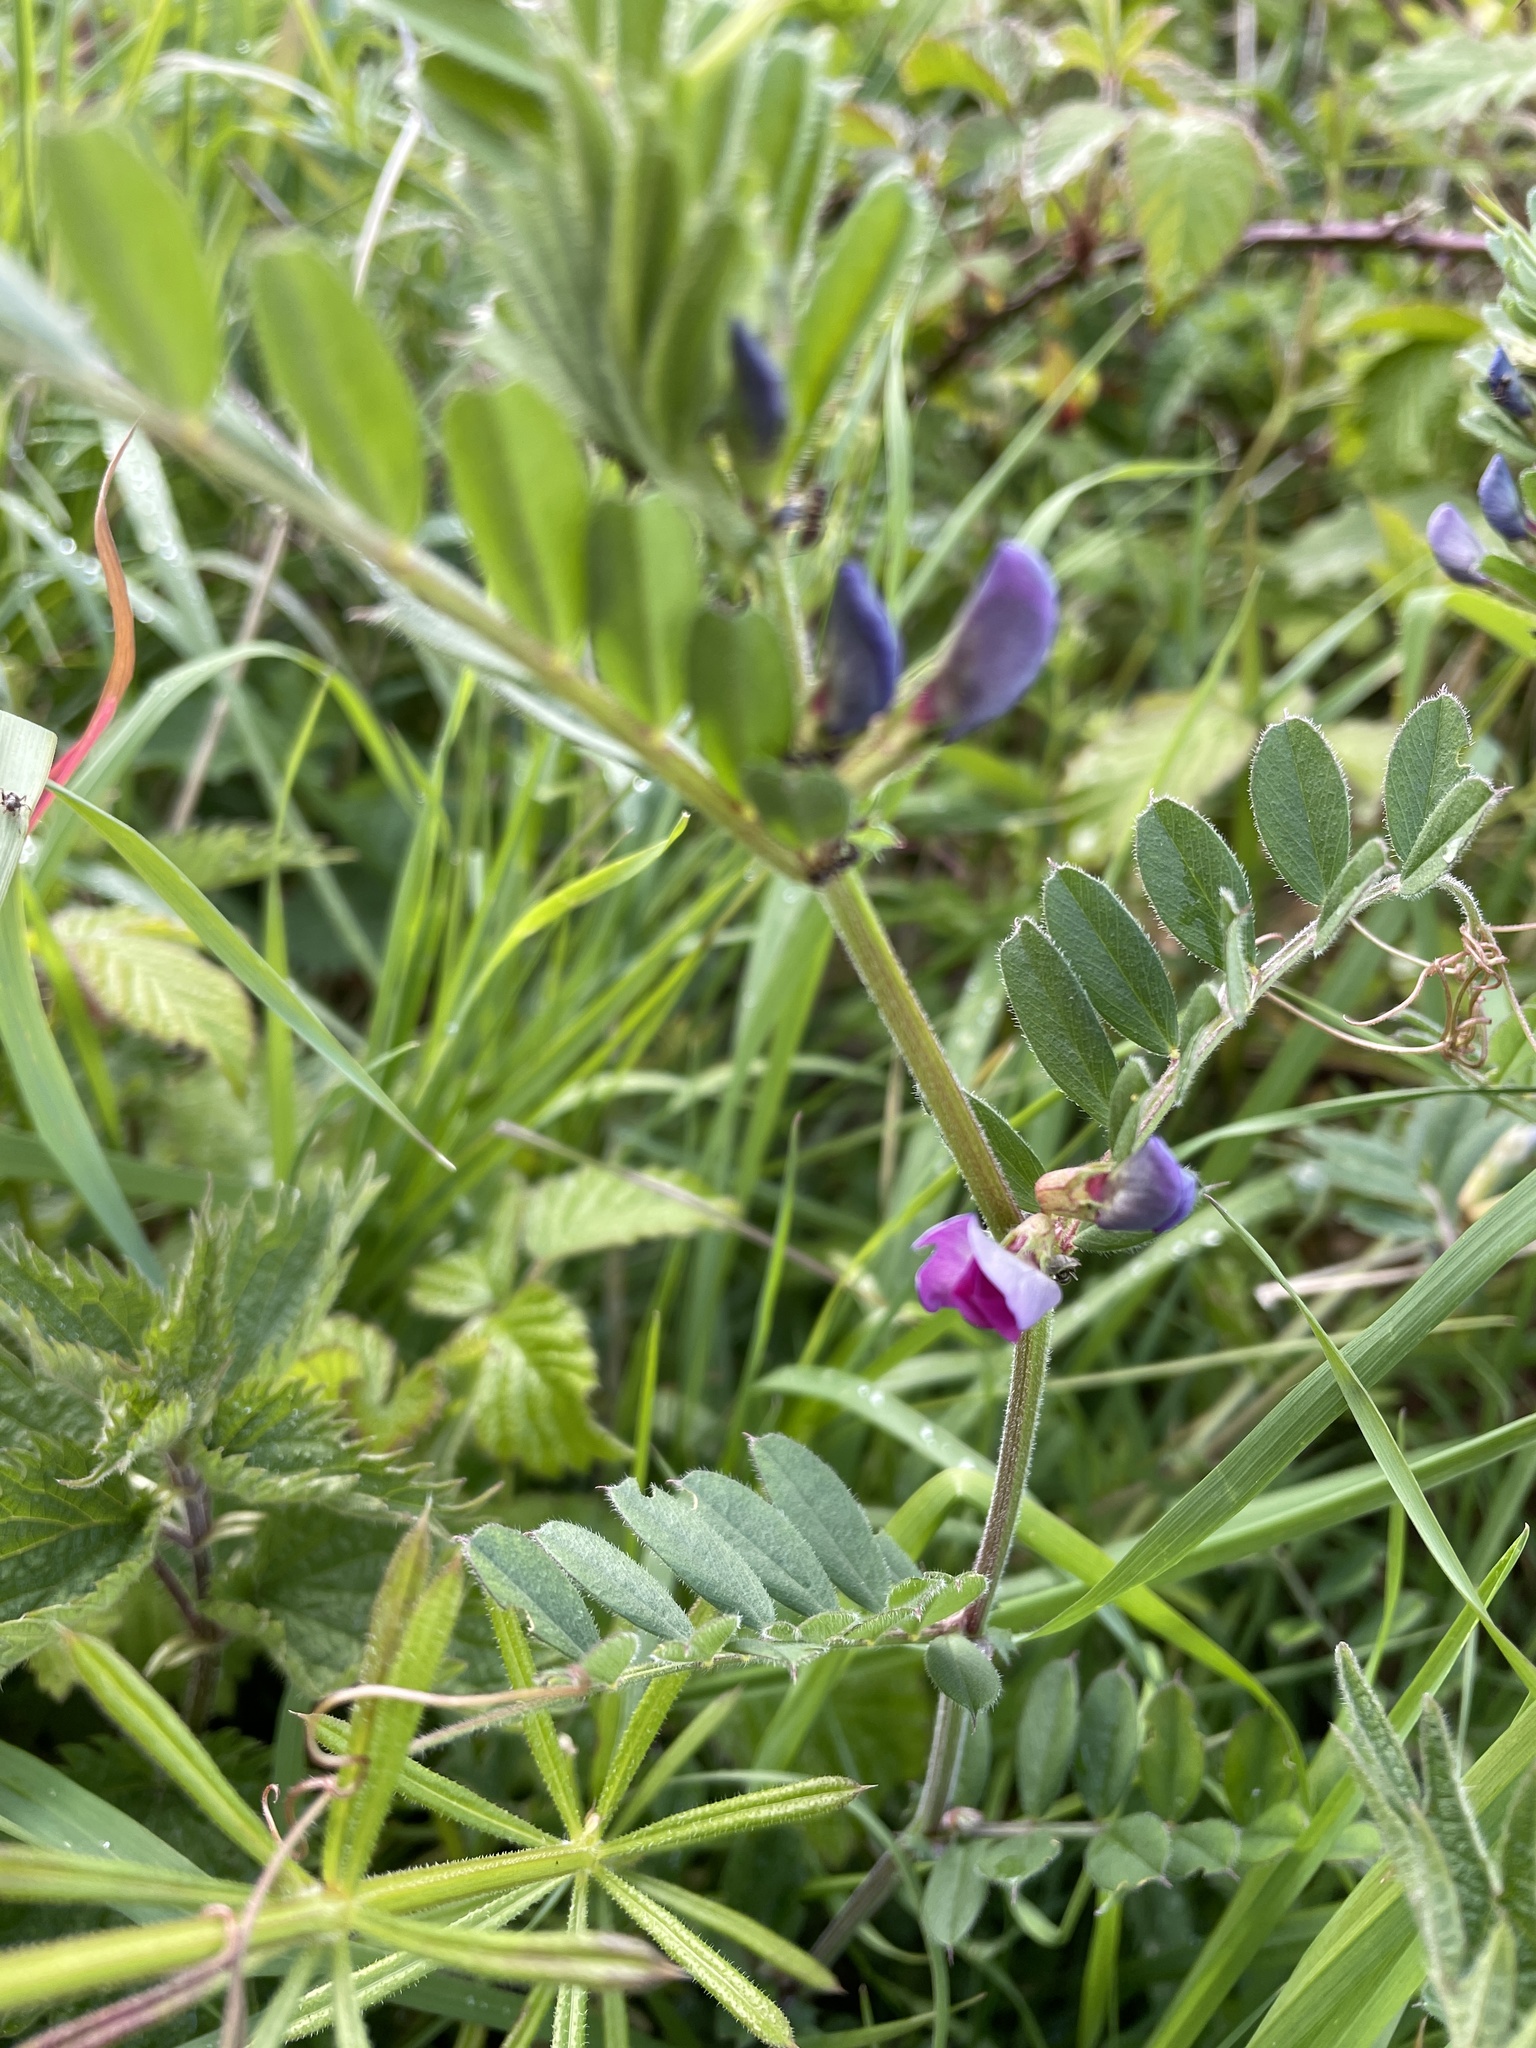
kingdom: Plantae
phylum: Tracheophyta
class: Magnoliopsida
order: Fabales
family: Fabaceae
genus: Vicia
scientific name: Vicia sativa
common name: Garden vetch
